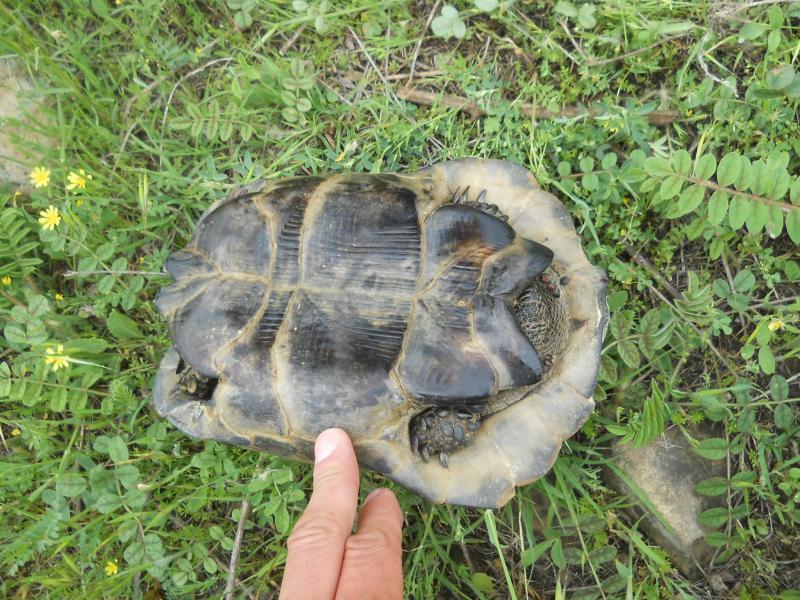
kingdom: Animalia
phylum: Chordata
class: Testudines
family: Testudinidae
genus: Testudo
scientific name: Testudo graeca
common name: Common tortoise
